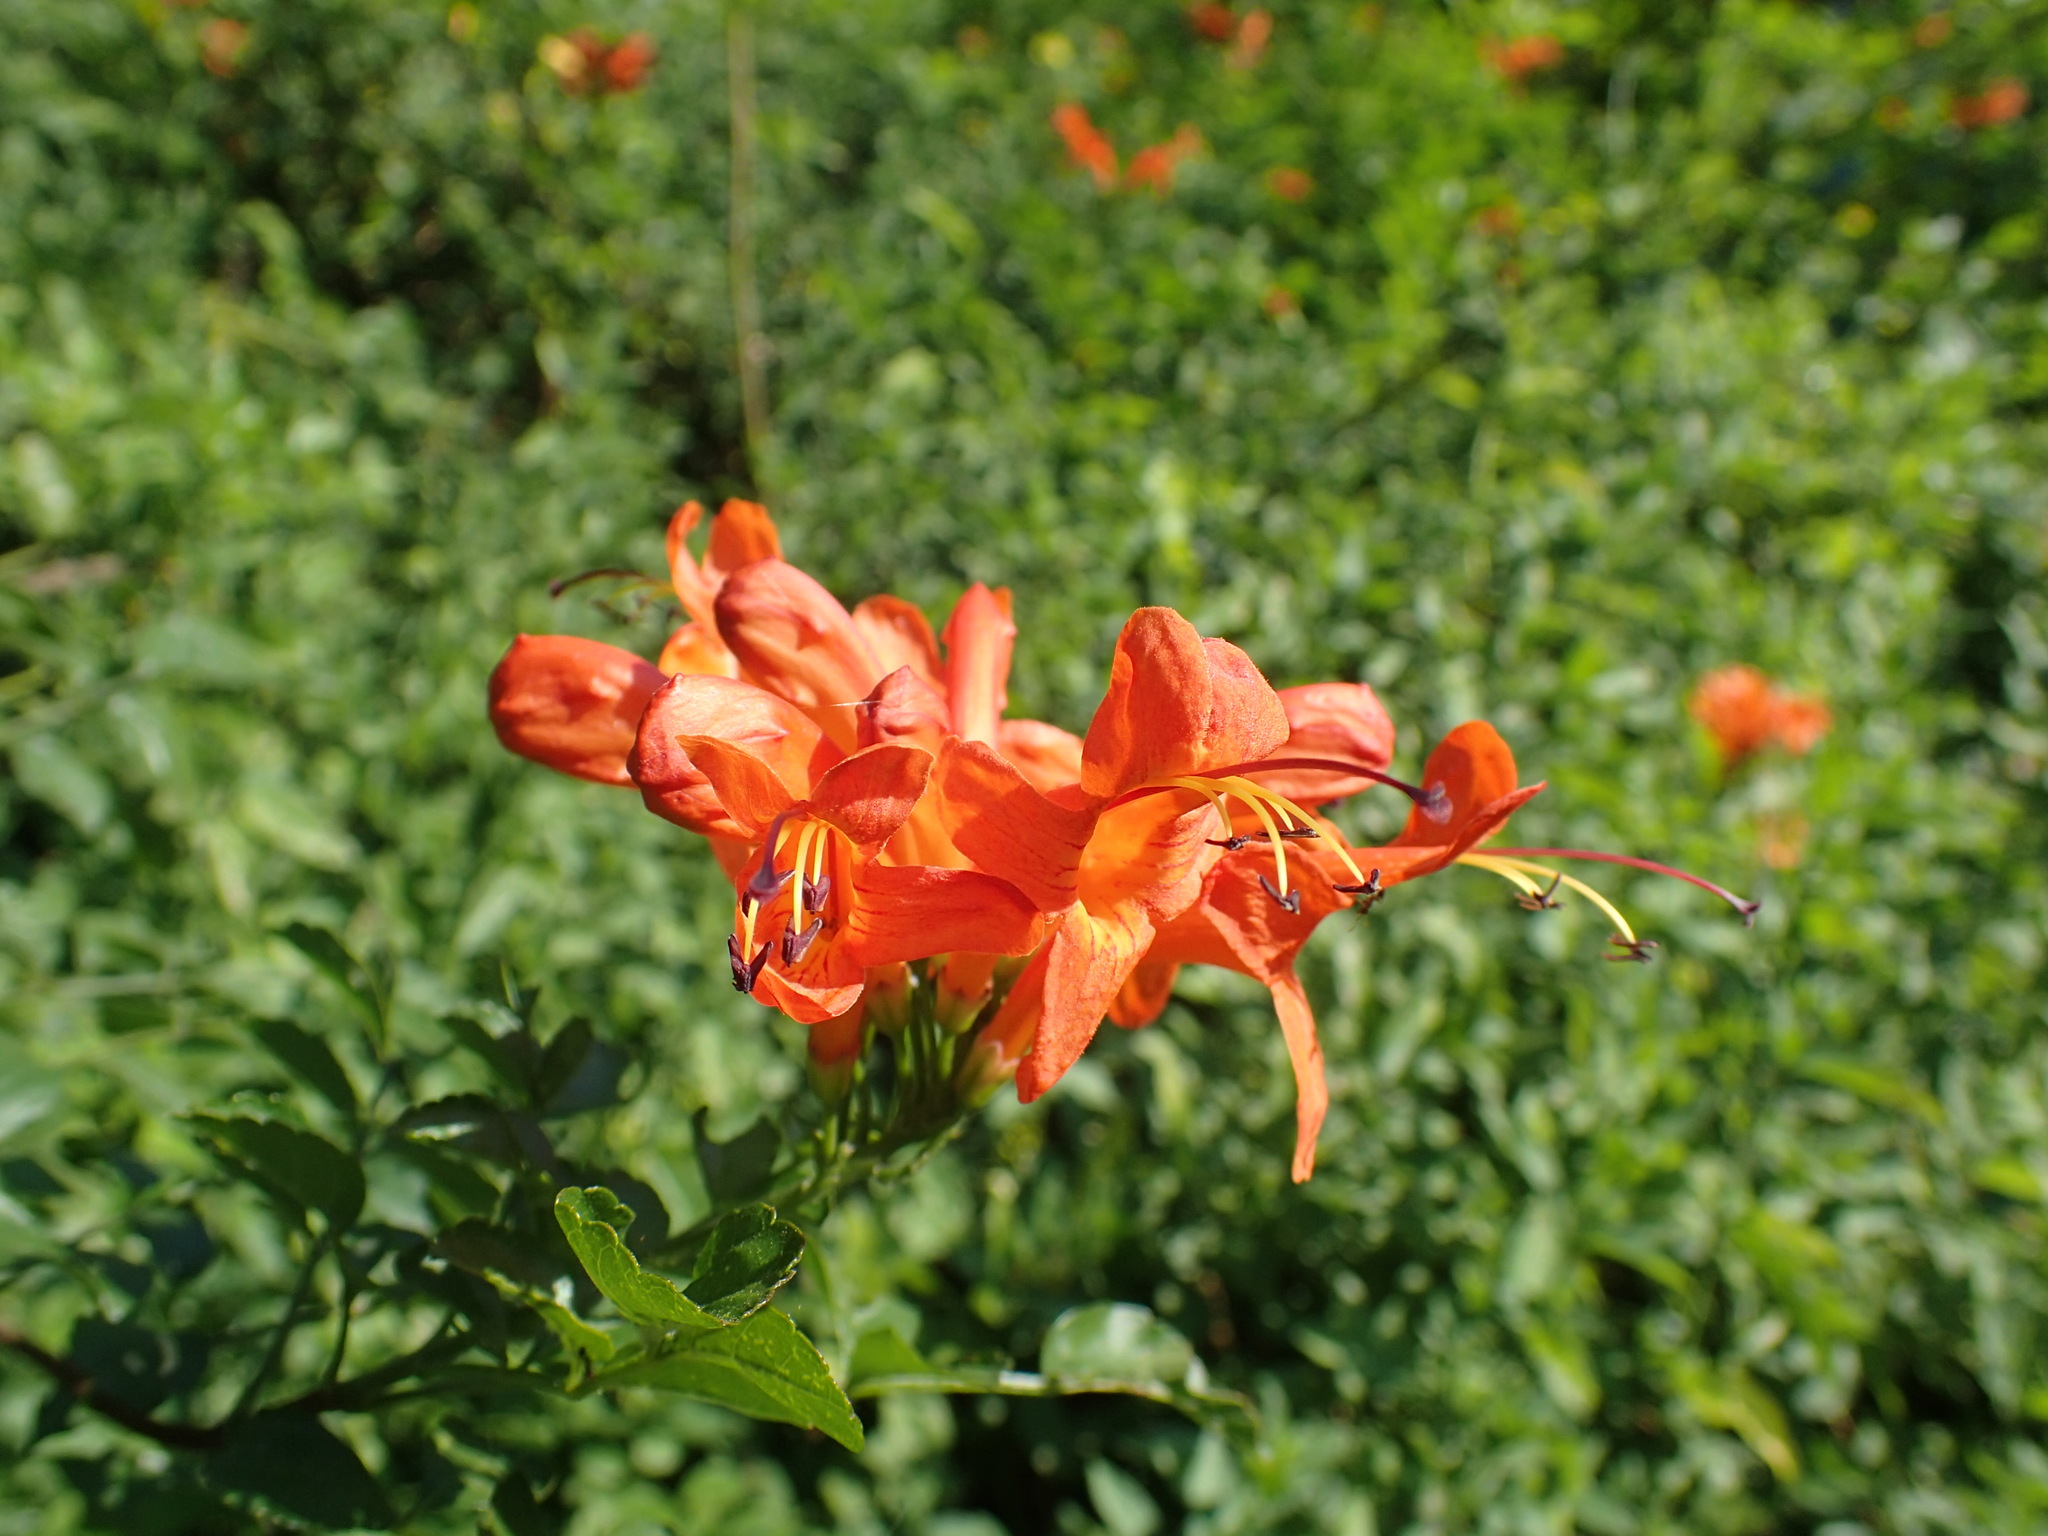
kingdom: Plantae
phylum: Tracheophyta
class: Magnoliopsida
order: Lamiales
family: Bignoniaceae
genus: Tecomaria
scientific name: Tecomaria capensis
